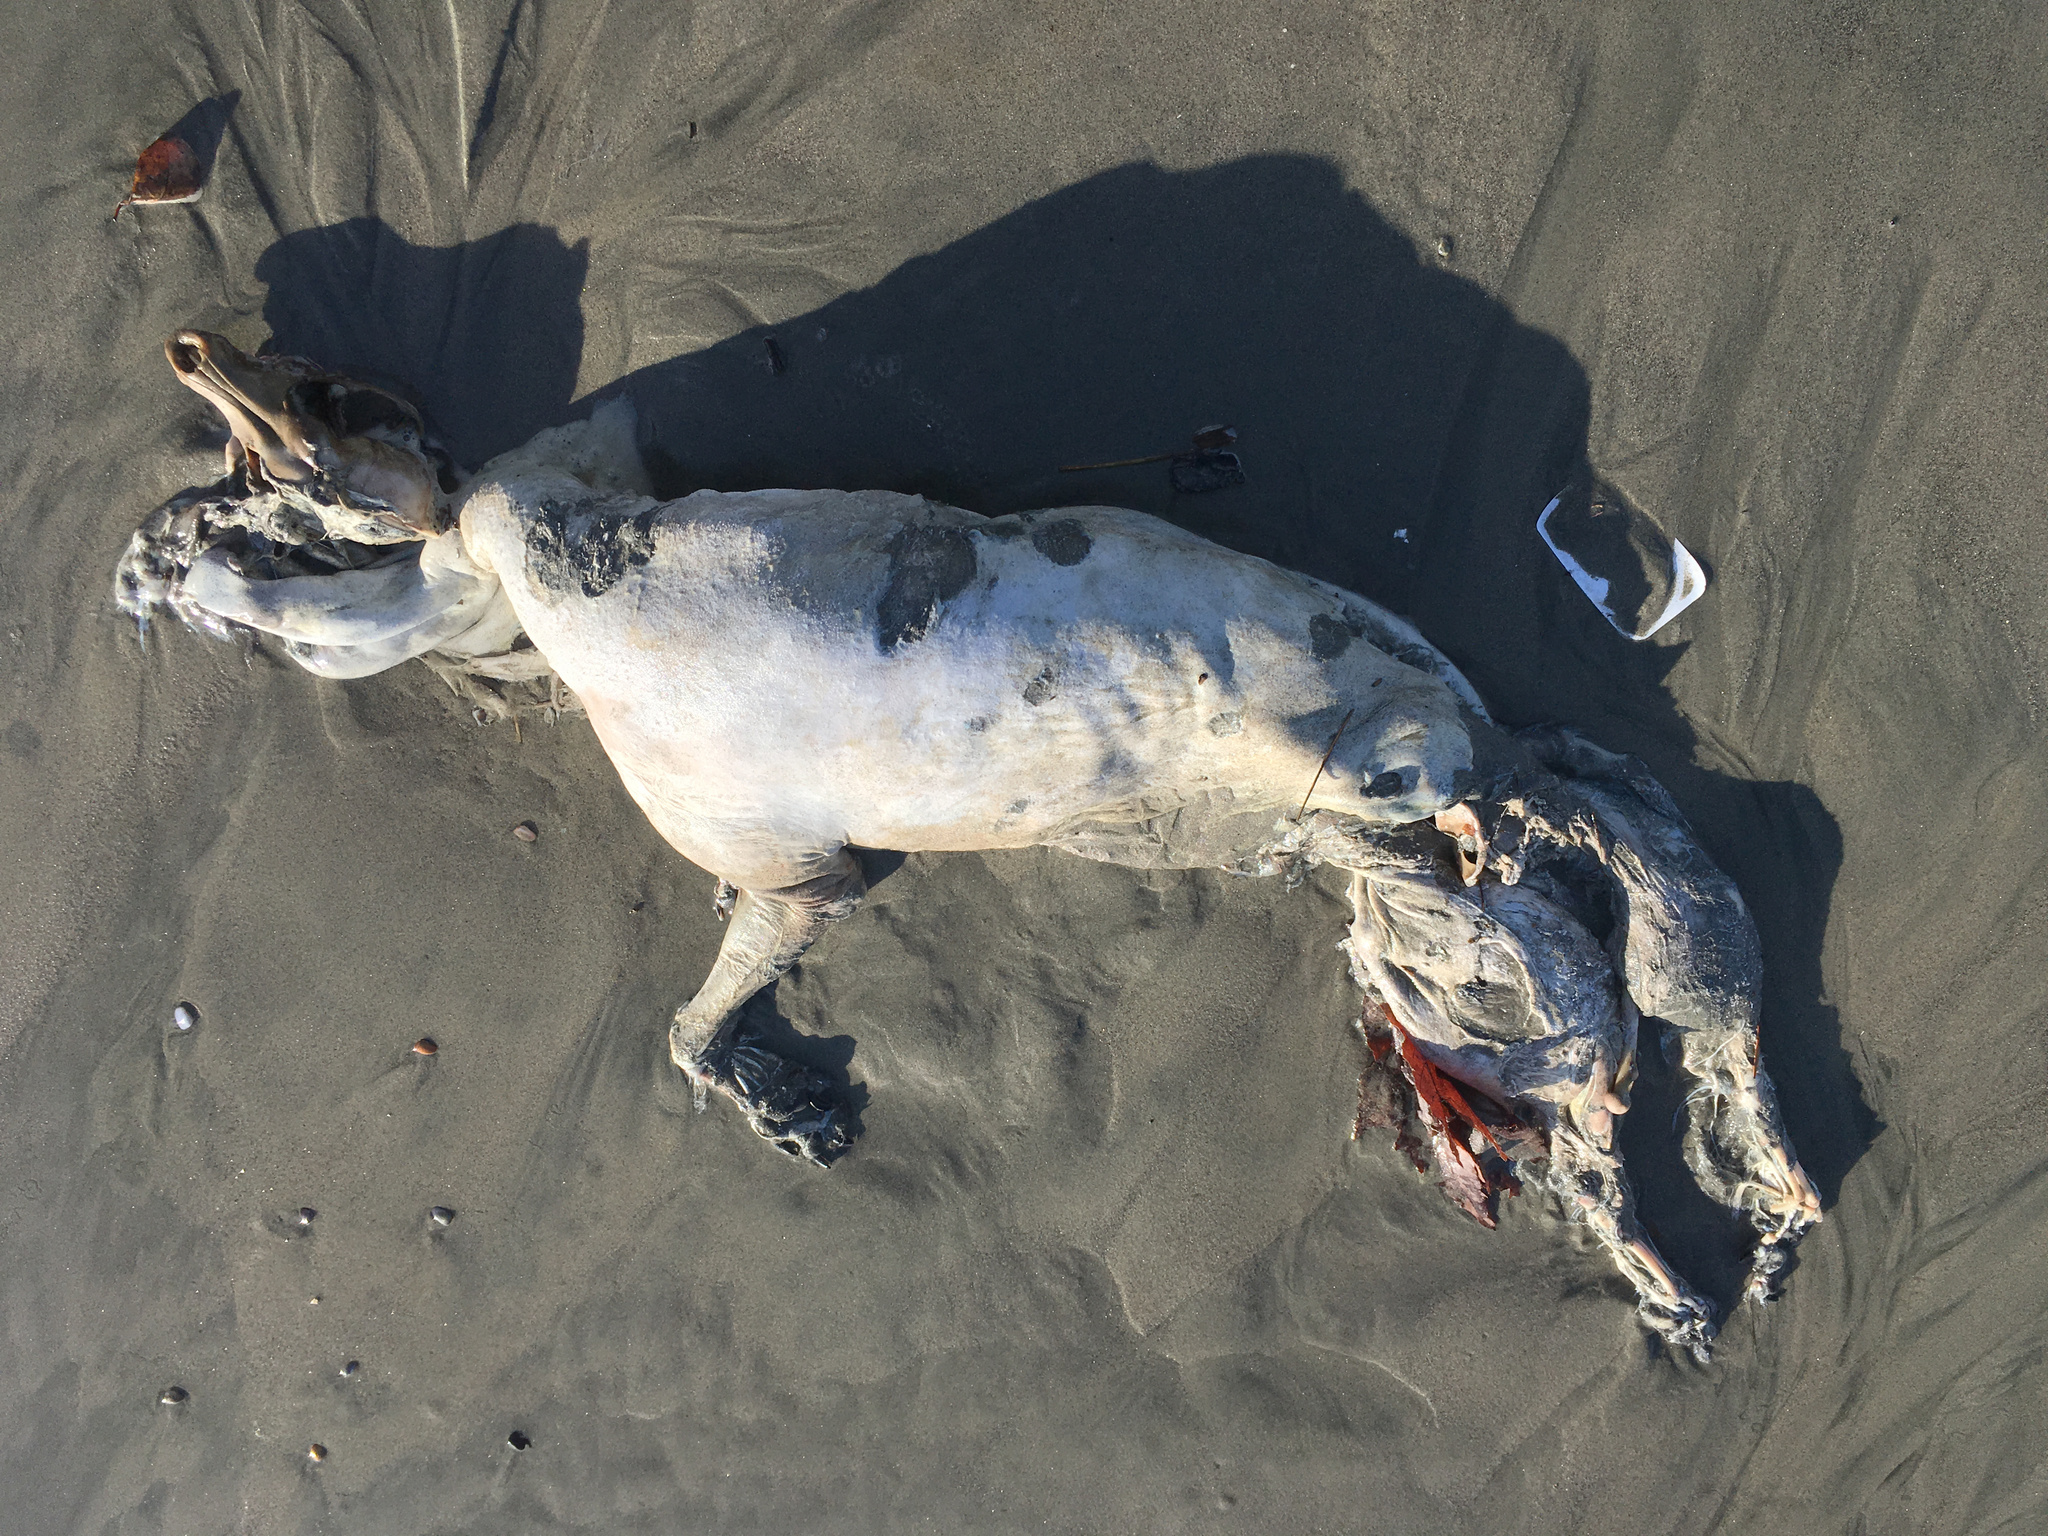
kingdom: Animalia
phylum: Chordata
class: Mammalia
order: Carnivora
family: Canidae
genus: Canis
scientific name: Canis lupus
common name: Gray wolf
